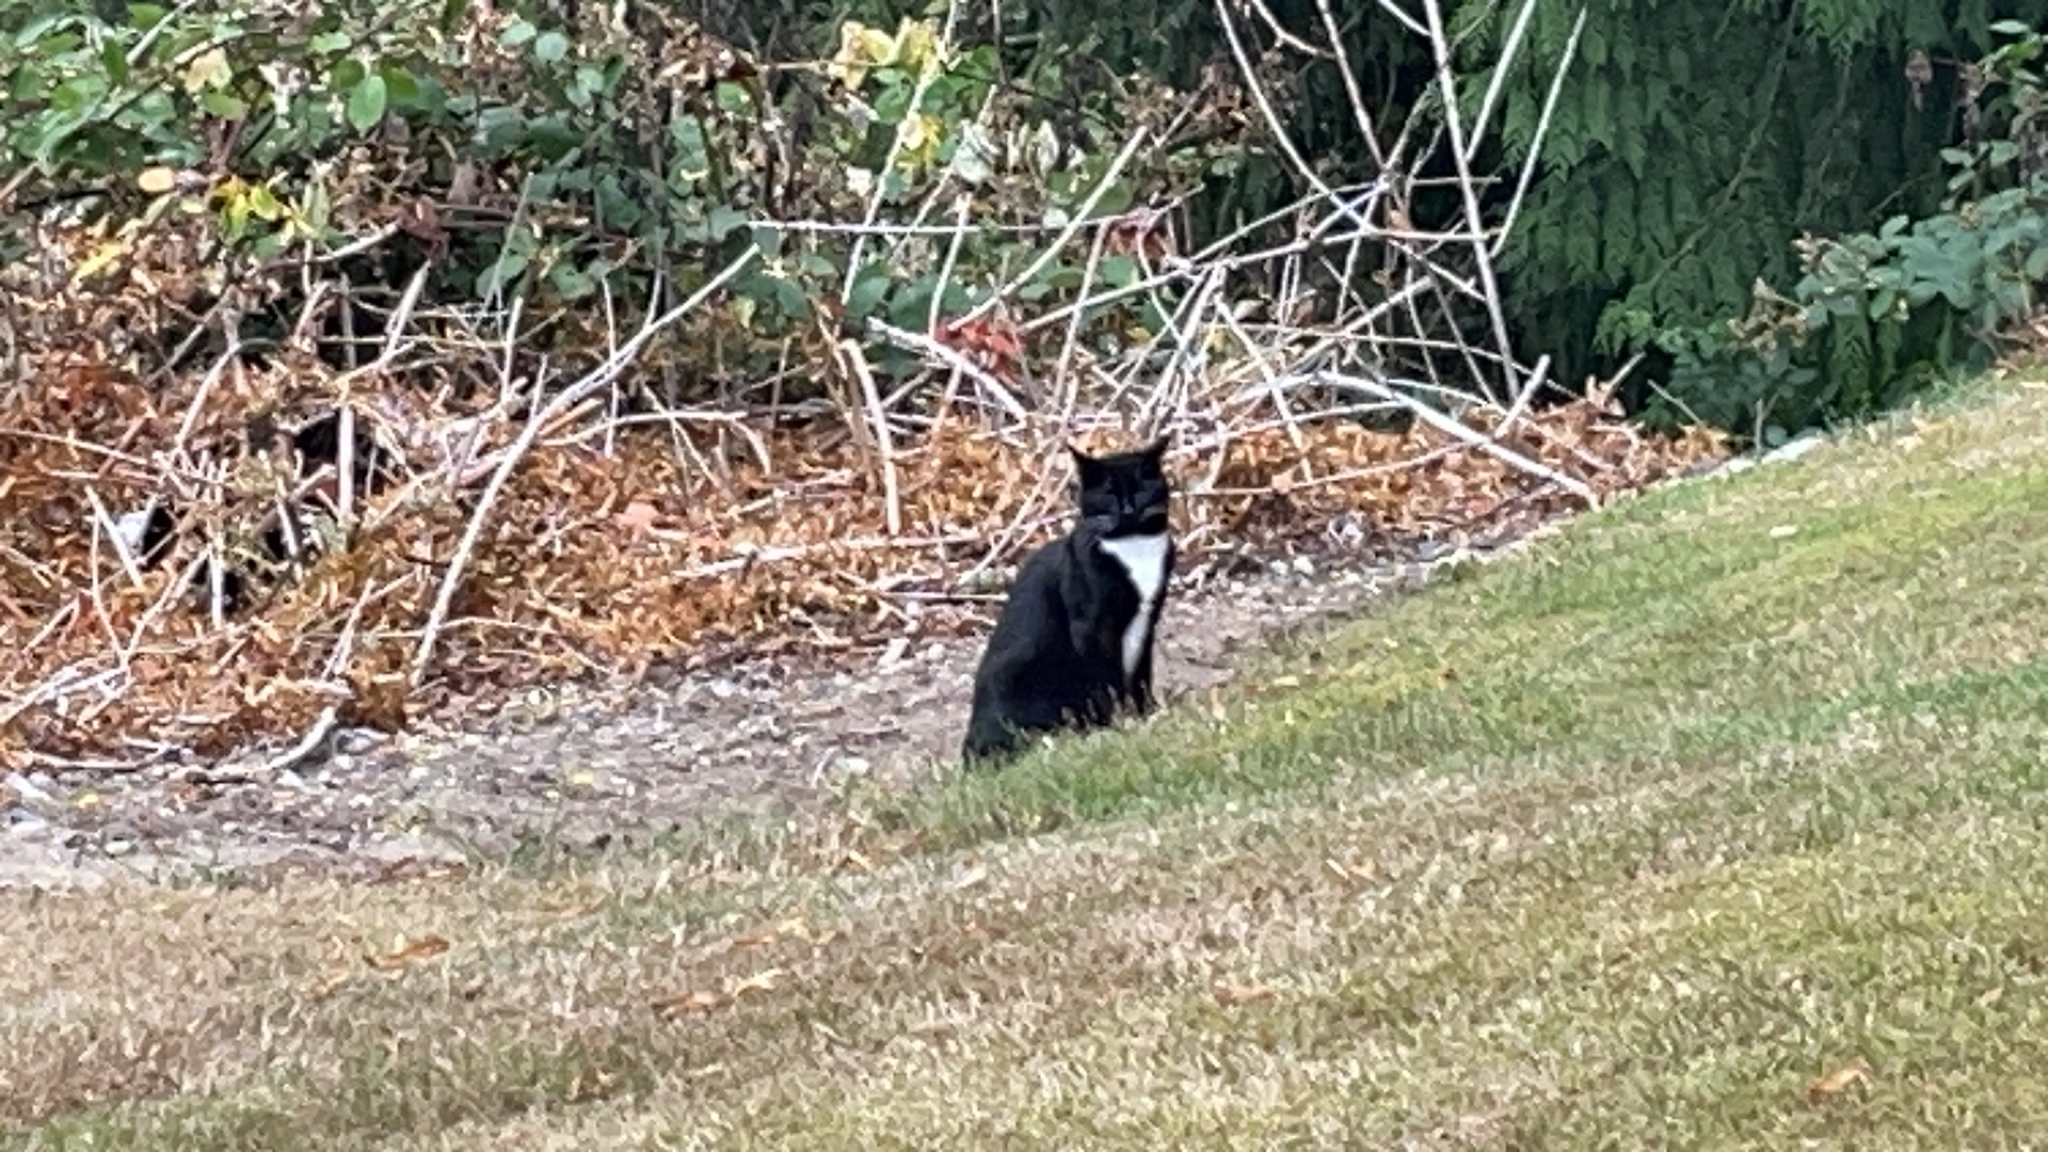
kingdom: Animalia
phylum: Chordata
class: Mammalia
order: Carnivora
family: Felidae
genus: Felis
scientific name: Felis catus
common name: Domestic cat
